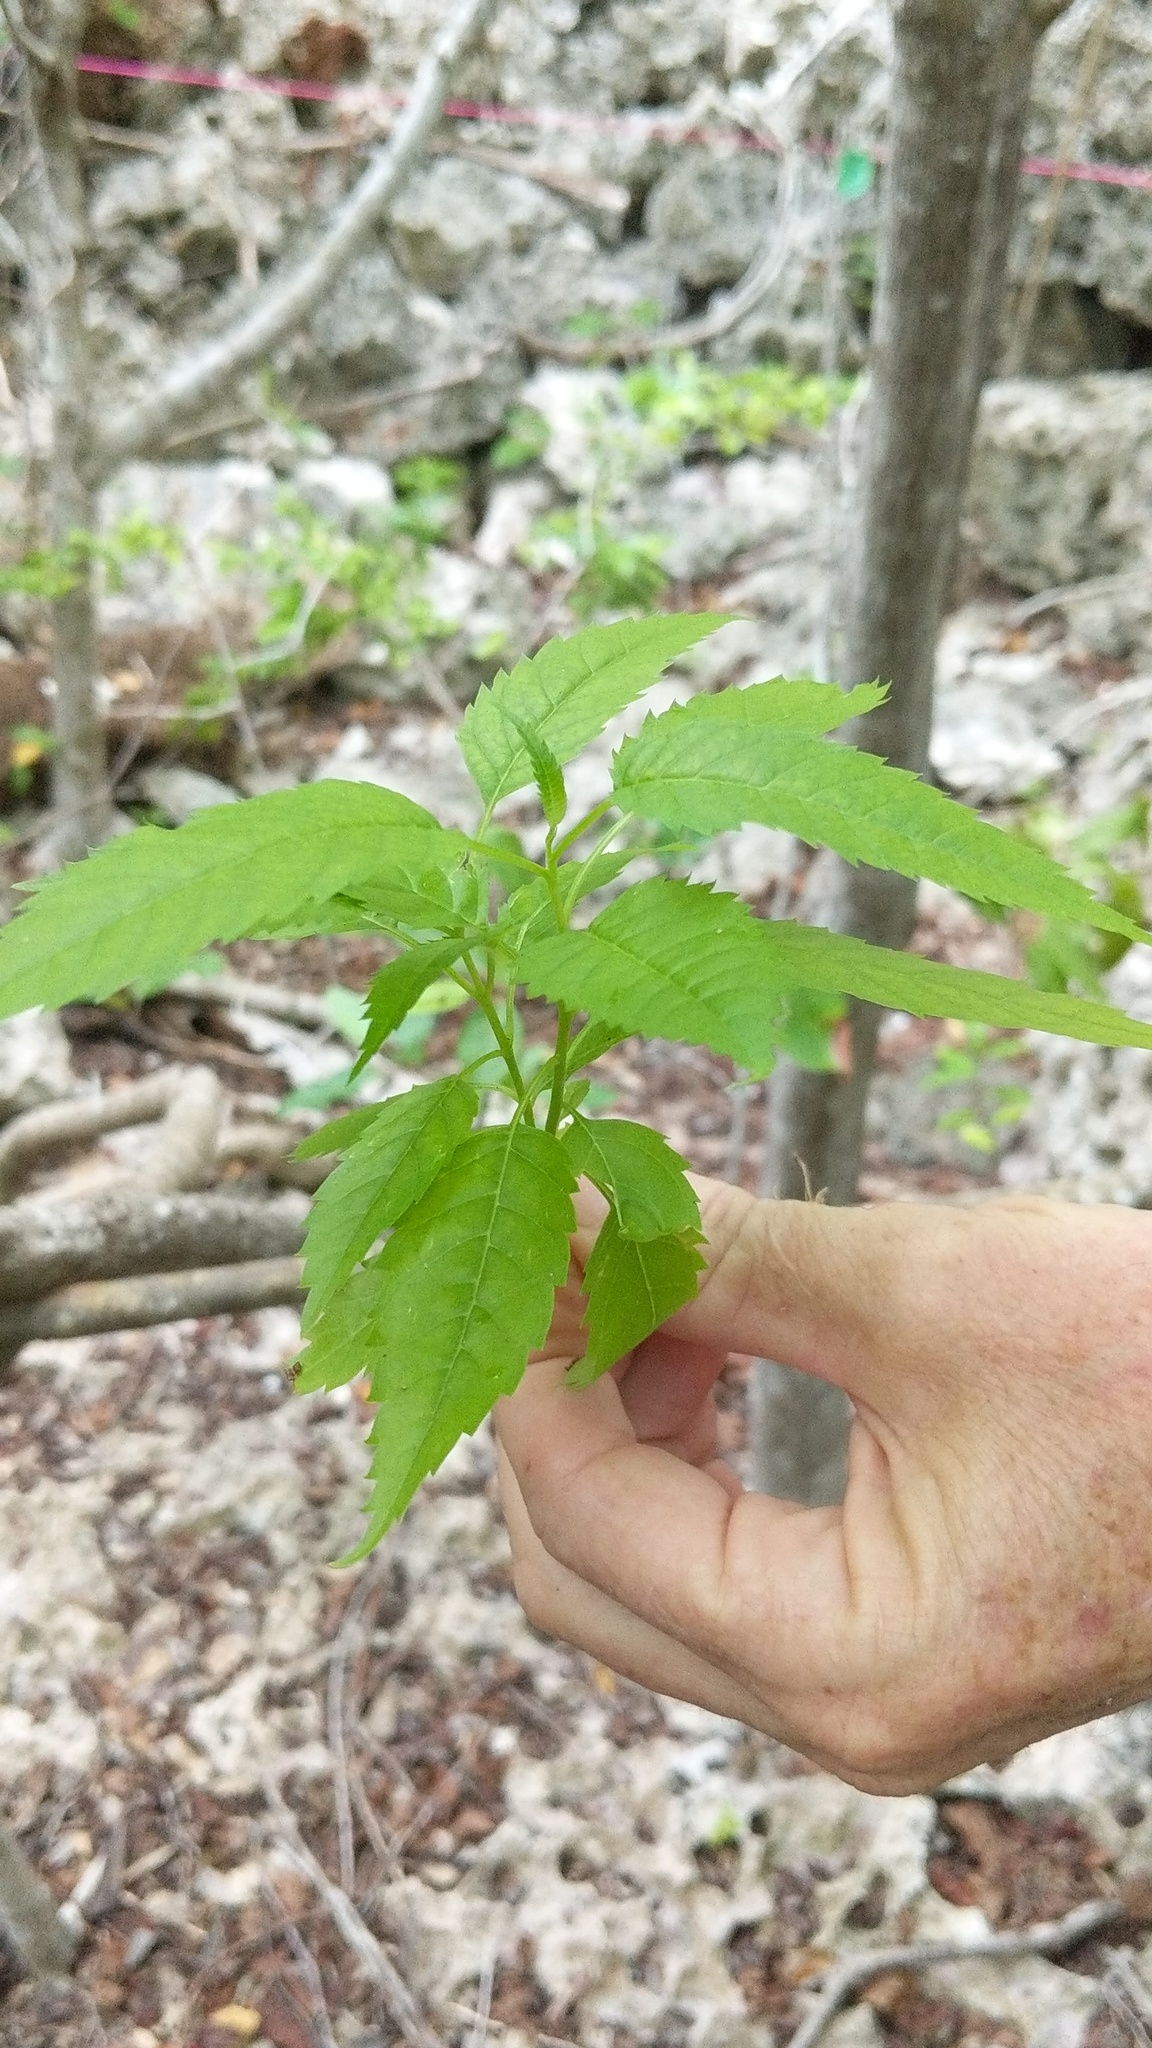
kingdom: Plantae
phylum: Tracheophyta
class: Magnoliopsida
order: Lamiales
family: Bignoniaceae
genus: Tecoma
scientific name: Tecoma stans
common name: Yellow trumpetbush
